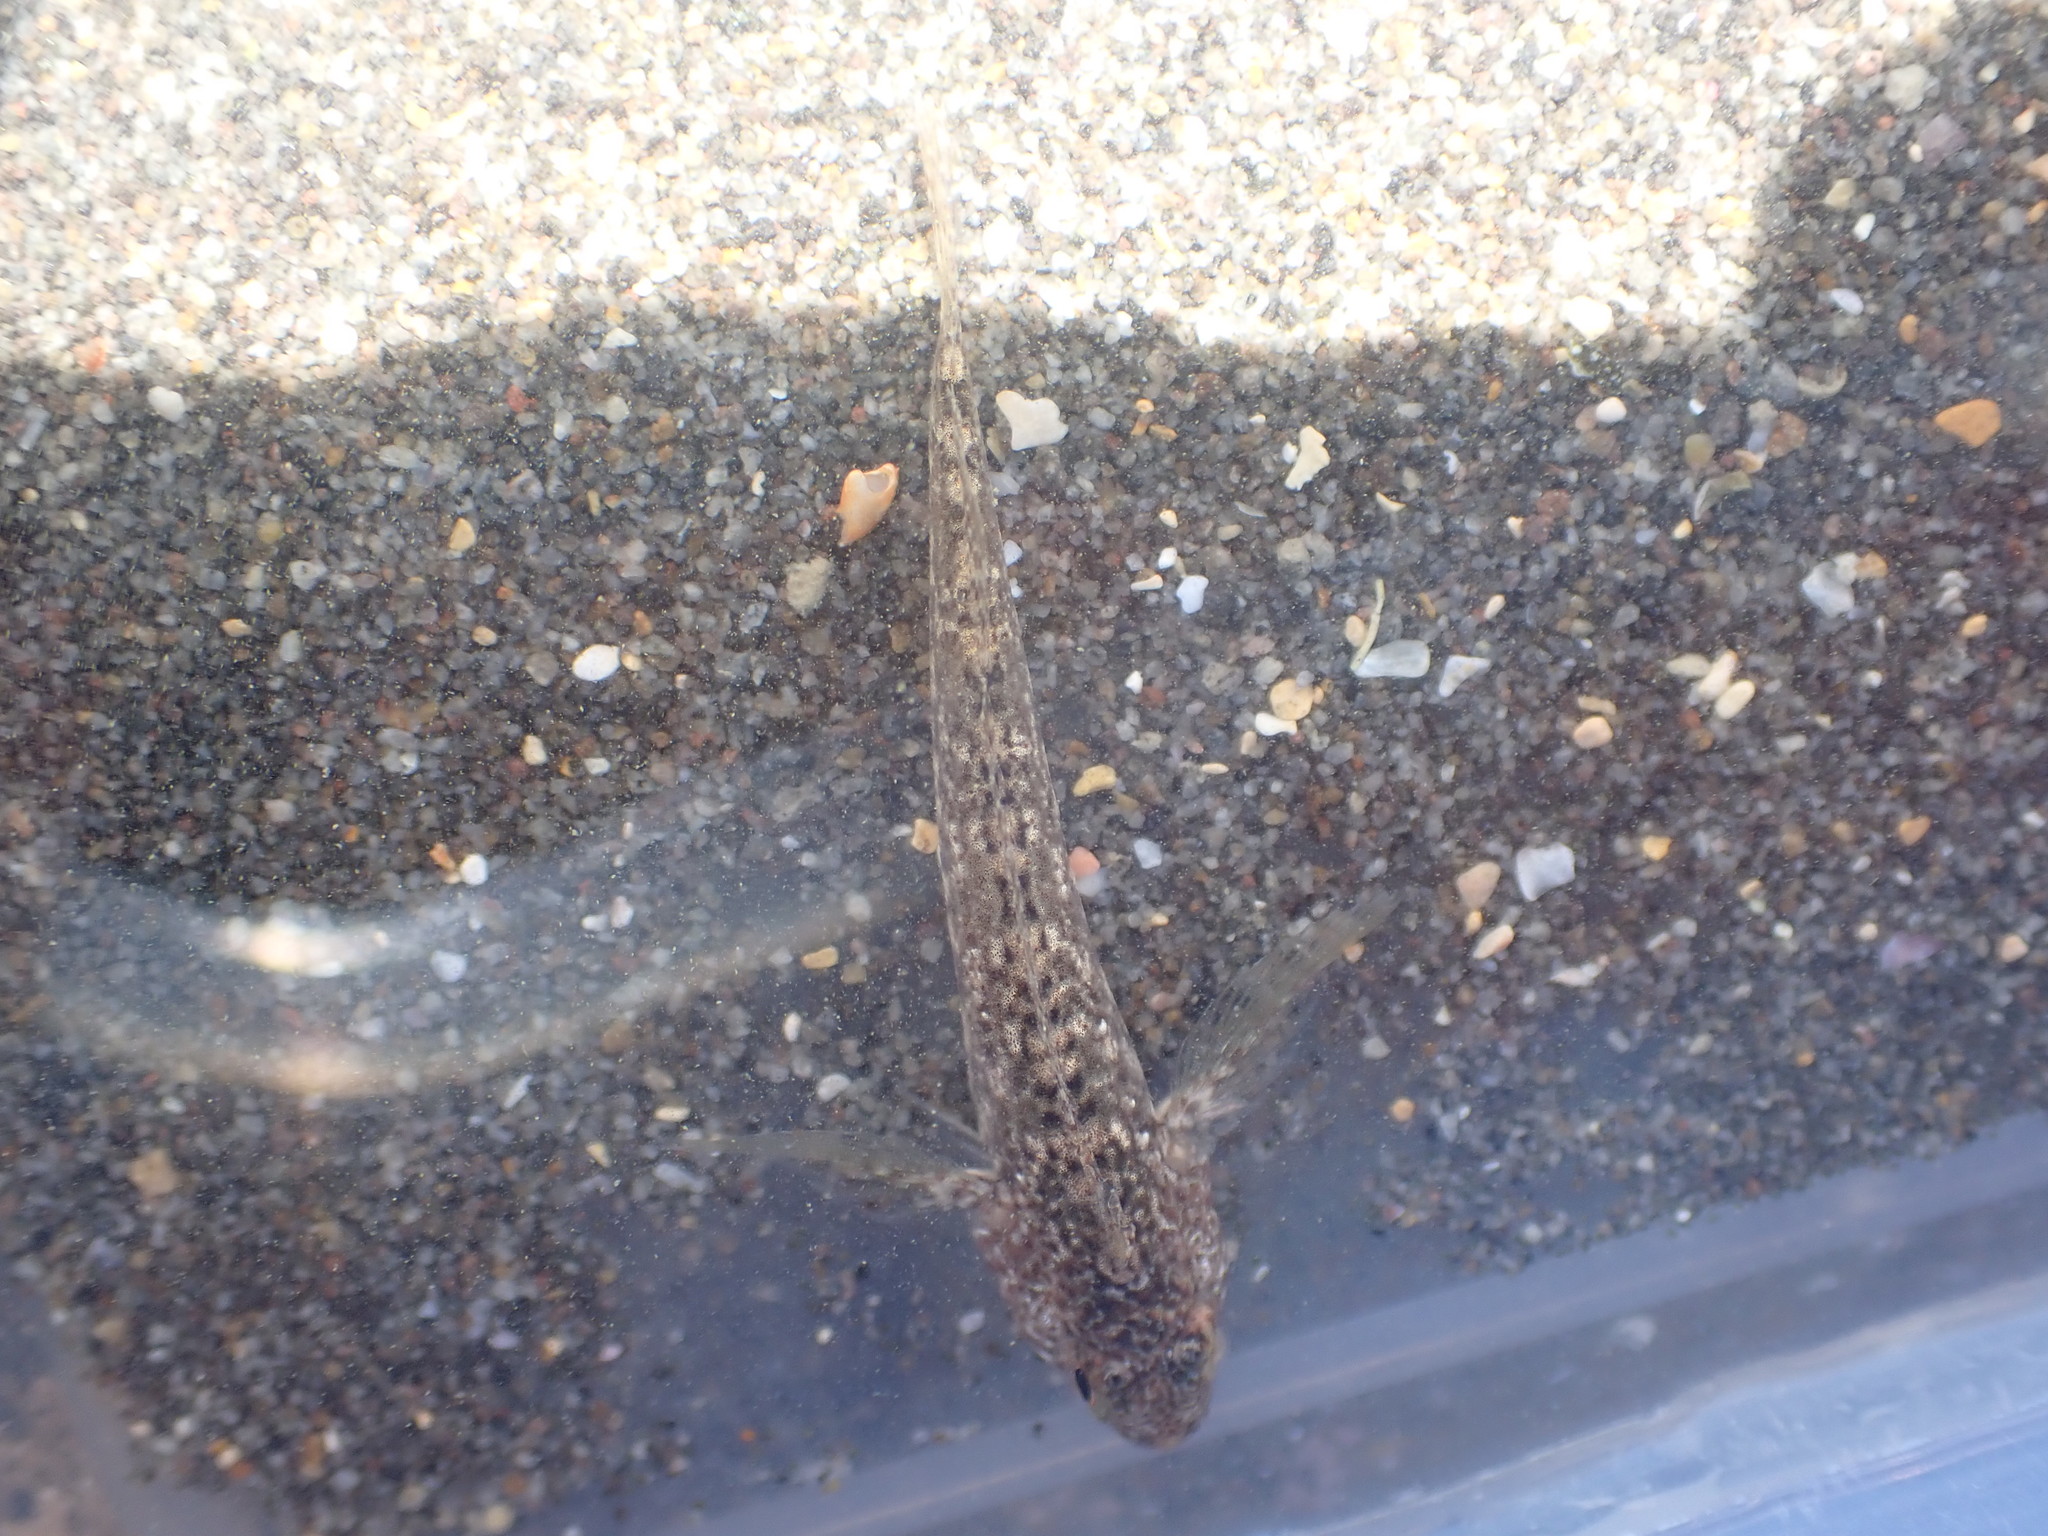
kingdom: Animalia
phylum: Chordata
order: Perciformes
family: Tripterygiidae
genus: Bellapiscis
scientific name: Bellapiscis medius
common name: Twister
